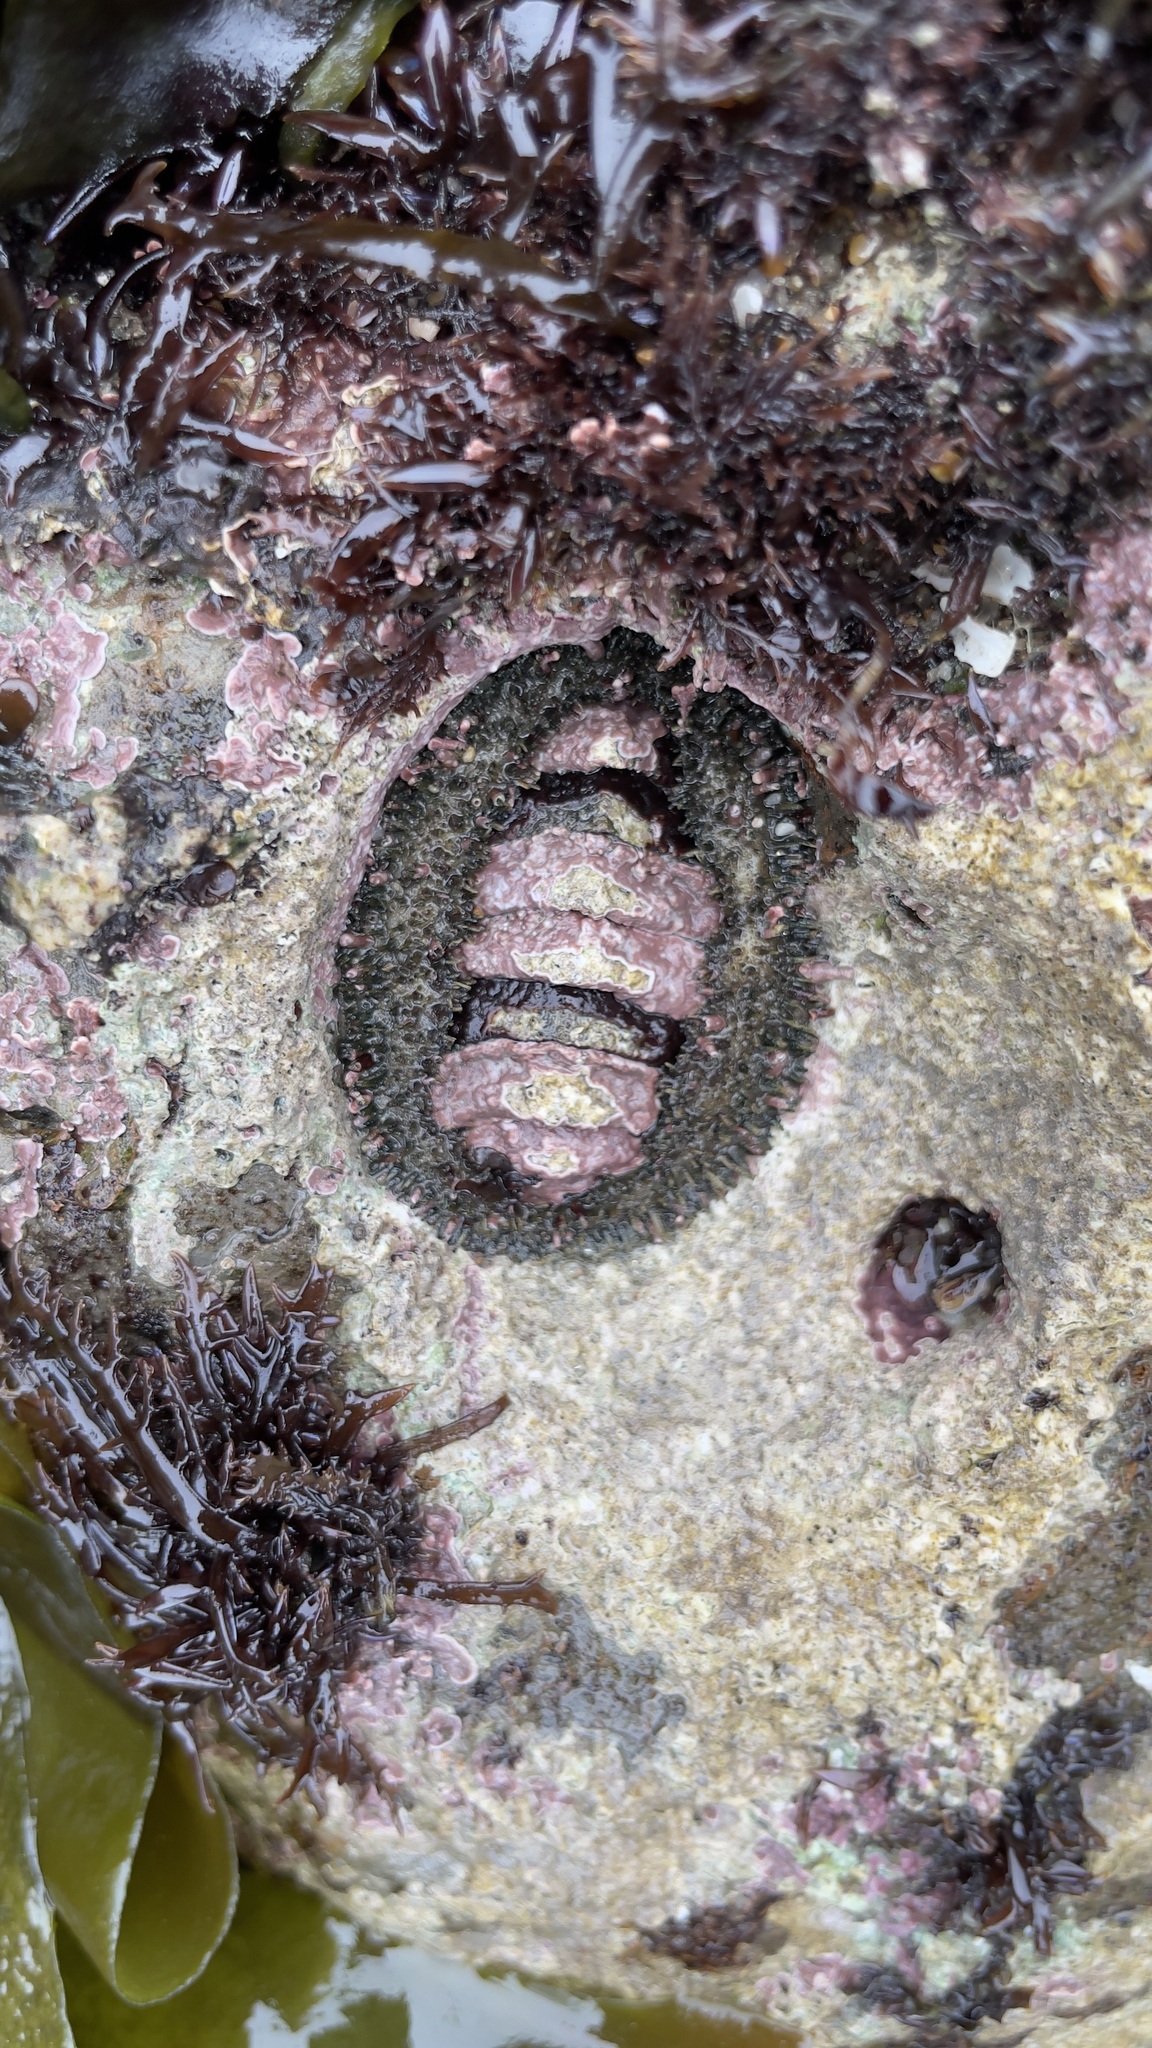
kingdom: Animalia
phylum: Mollusca
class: Polyplacophora
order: Chitonida
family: Mopaliidae
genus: Mopalia
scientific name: Mopalia muscosa
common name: Mossy chiton
